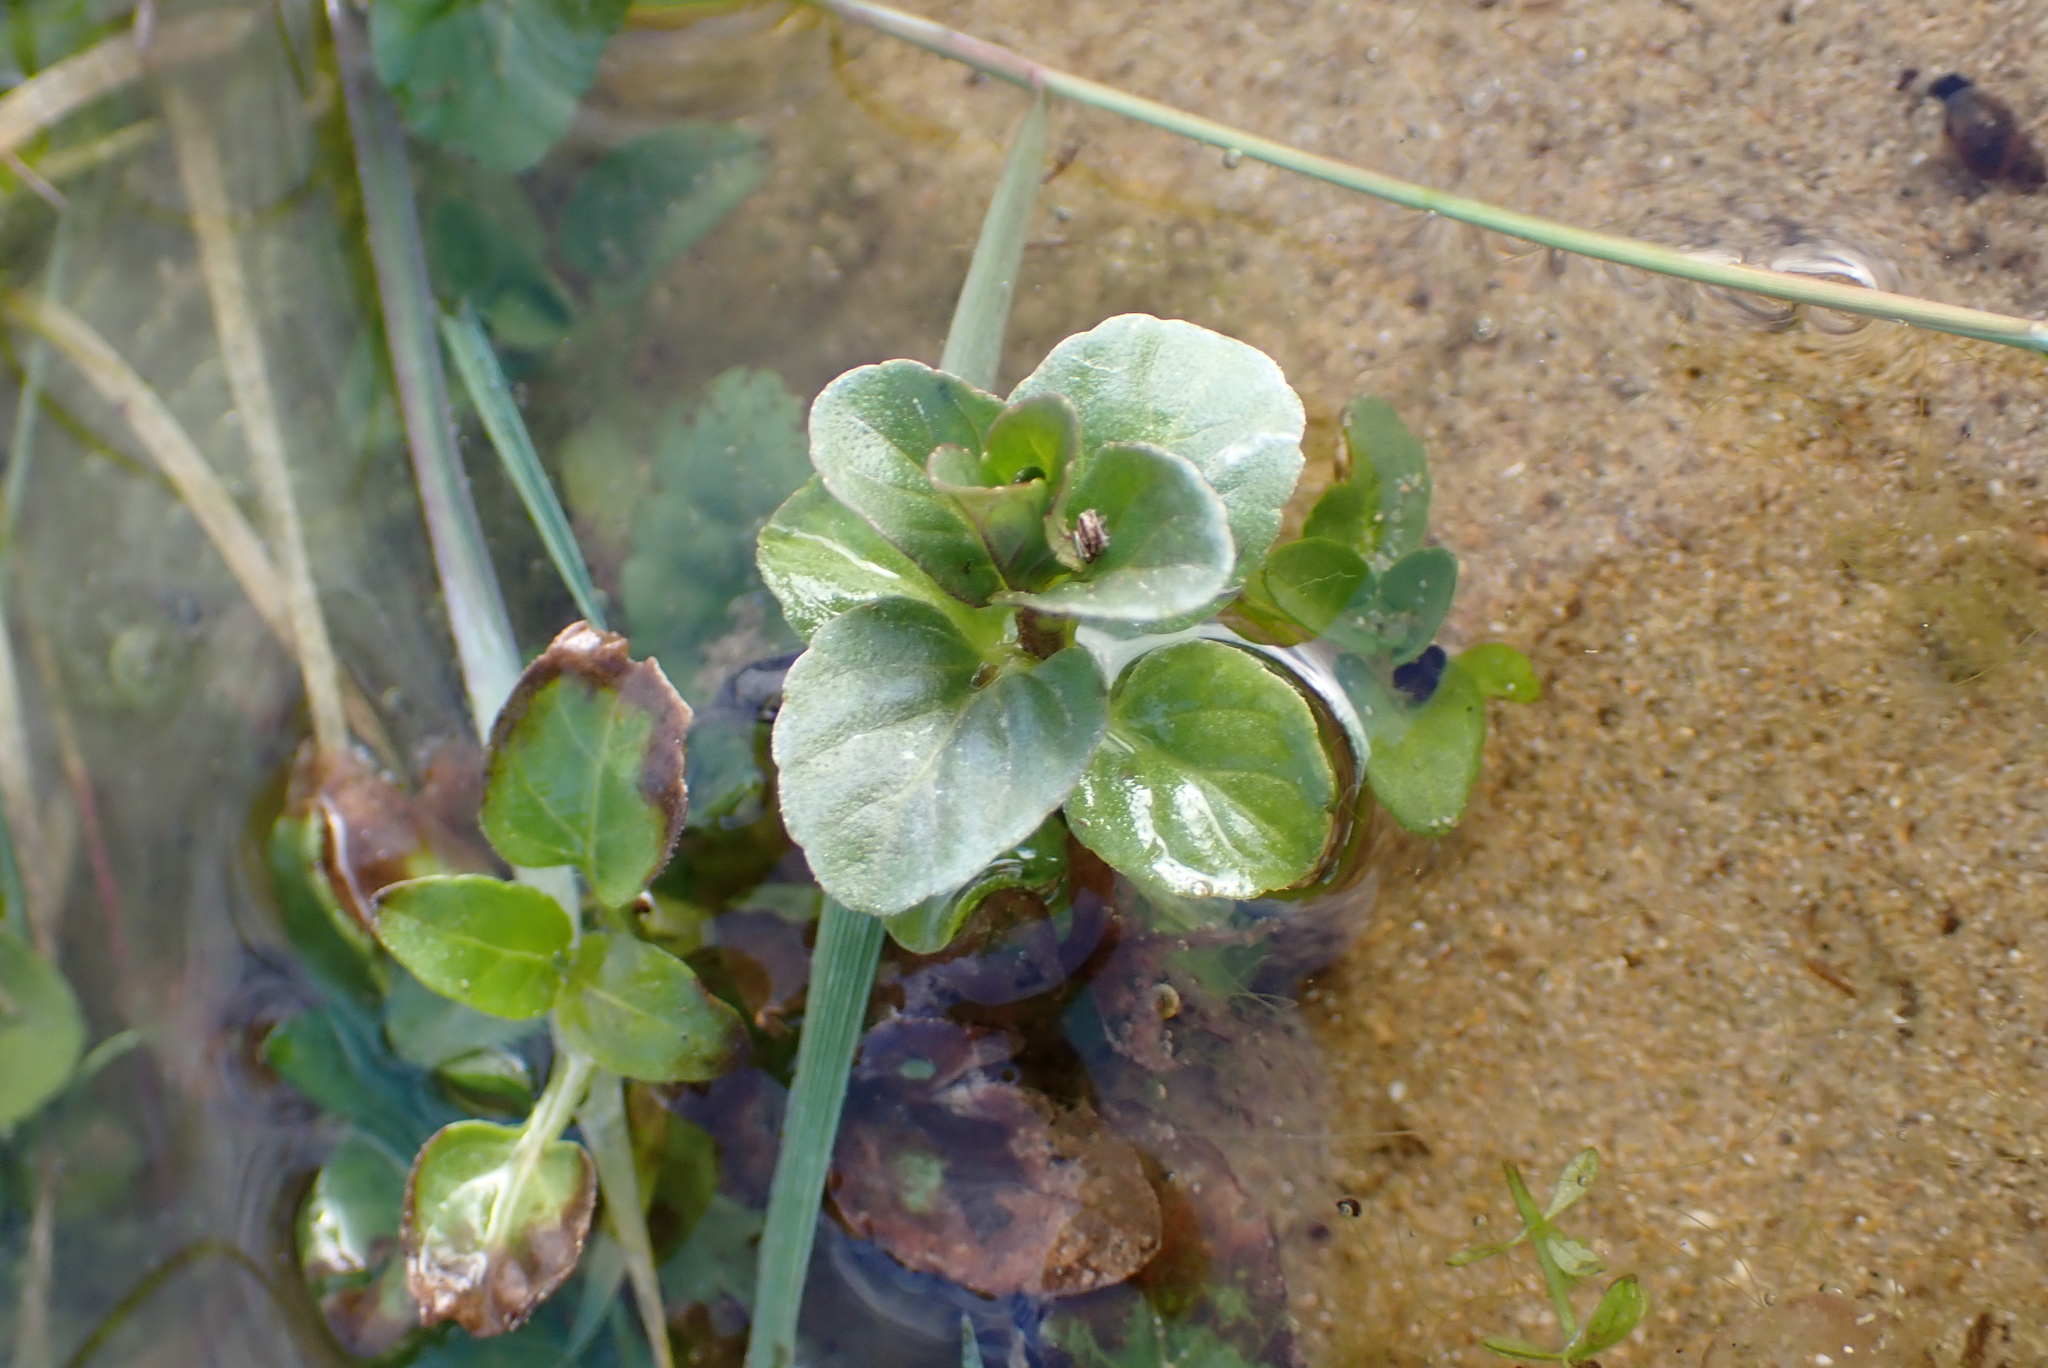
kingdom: Plantae
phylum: Tracheophyta
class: Magnoliopsida
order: Lamiales
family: Plantaginaceae
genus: Veronica
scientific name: Veronica beccabunga
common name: Brooklime
